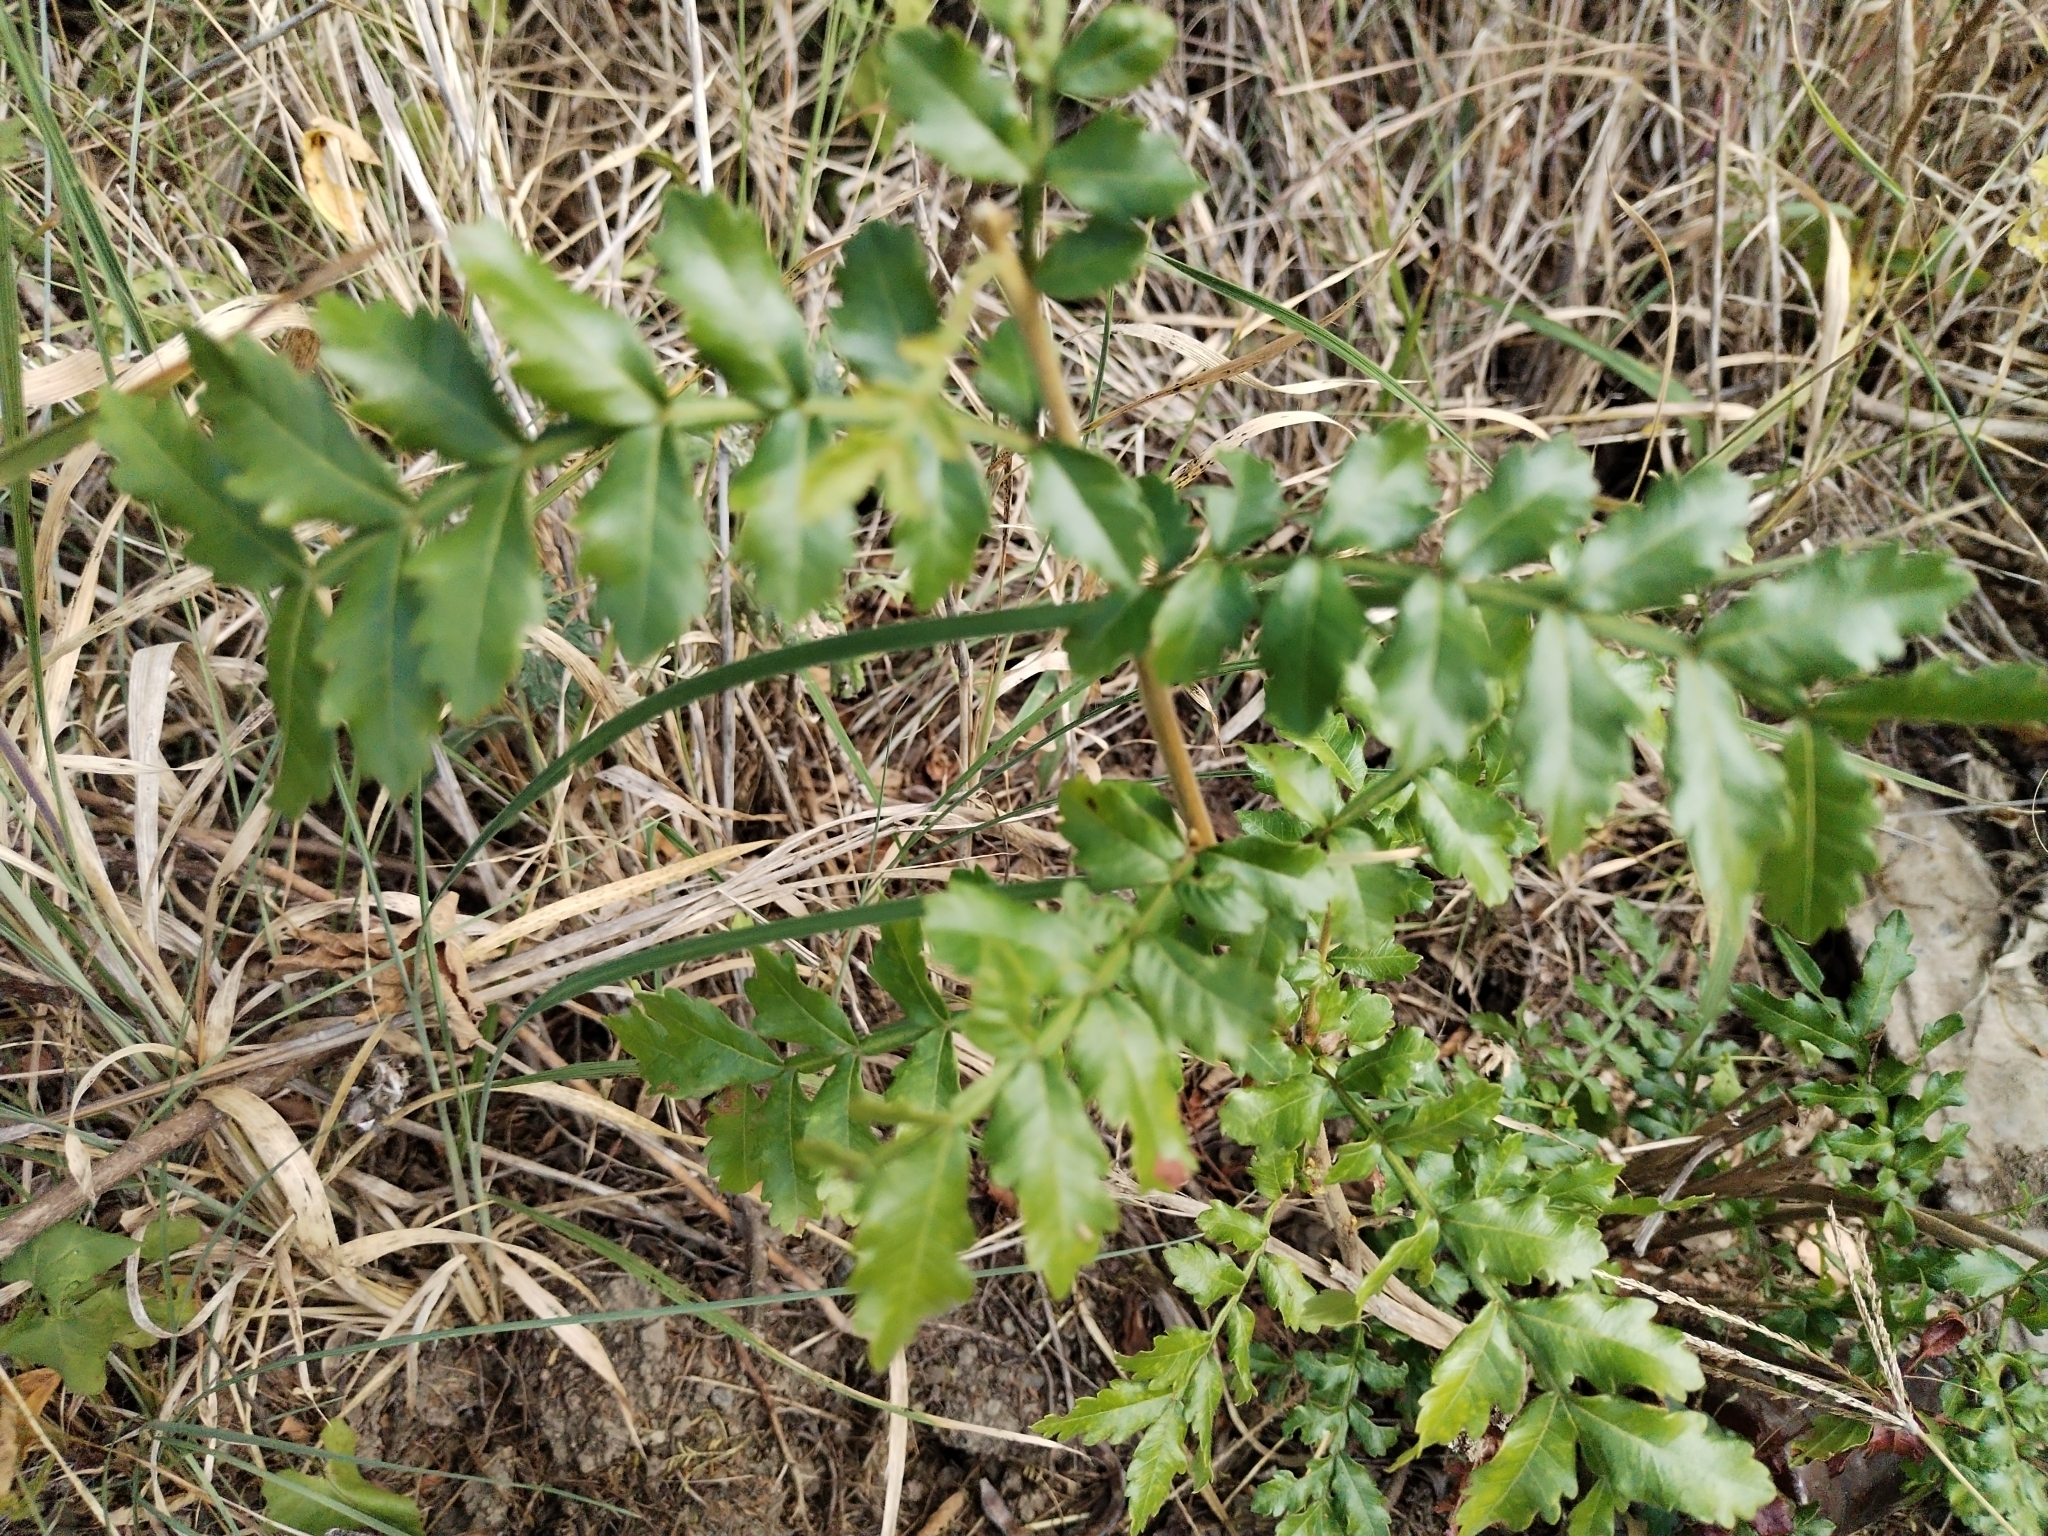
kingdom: Plantae
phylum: Tracheophyta
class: Magnoliopsida
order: Sapindales
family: Sapindaceae
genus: Hippobromus
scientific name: Hippobromus pauciflorus
